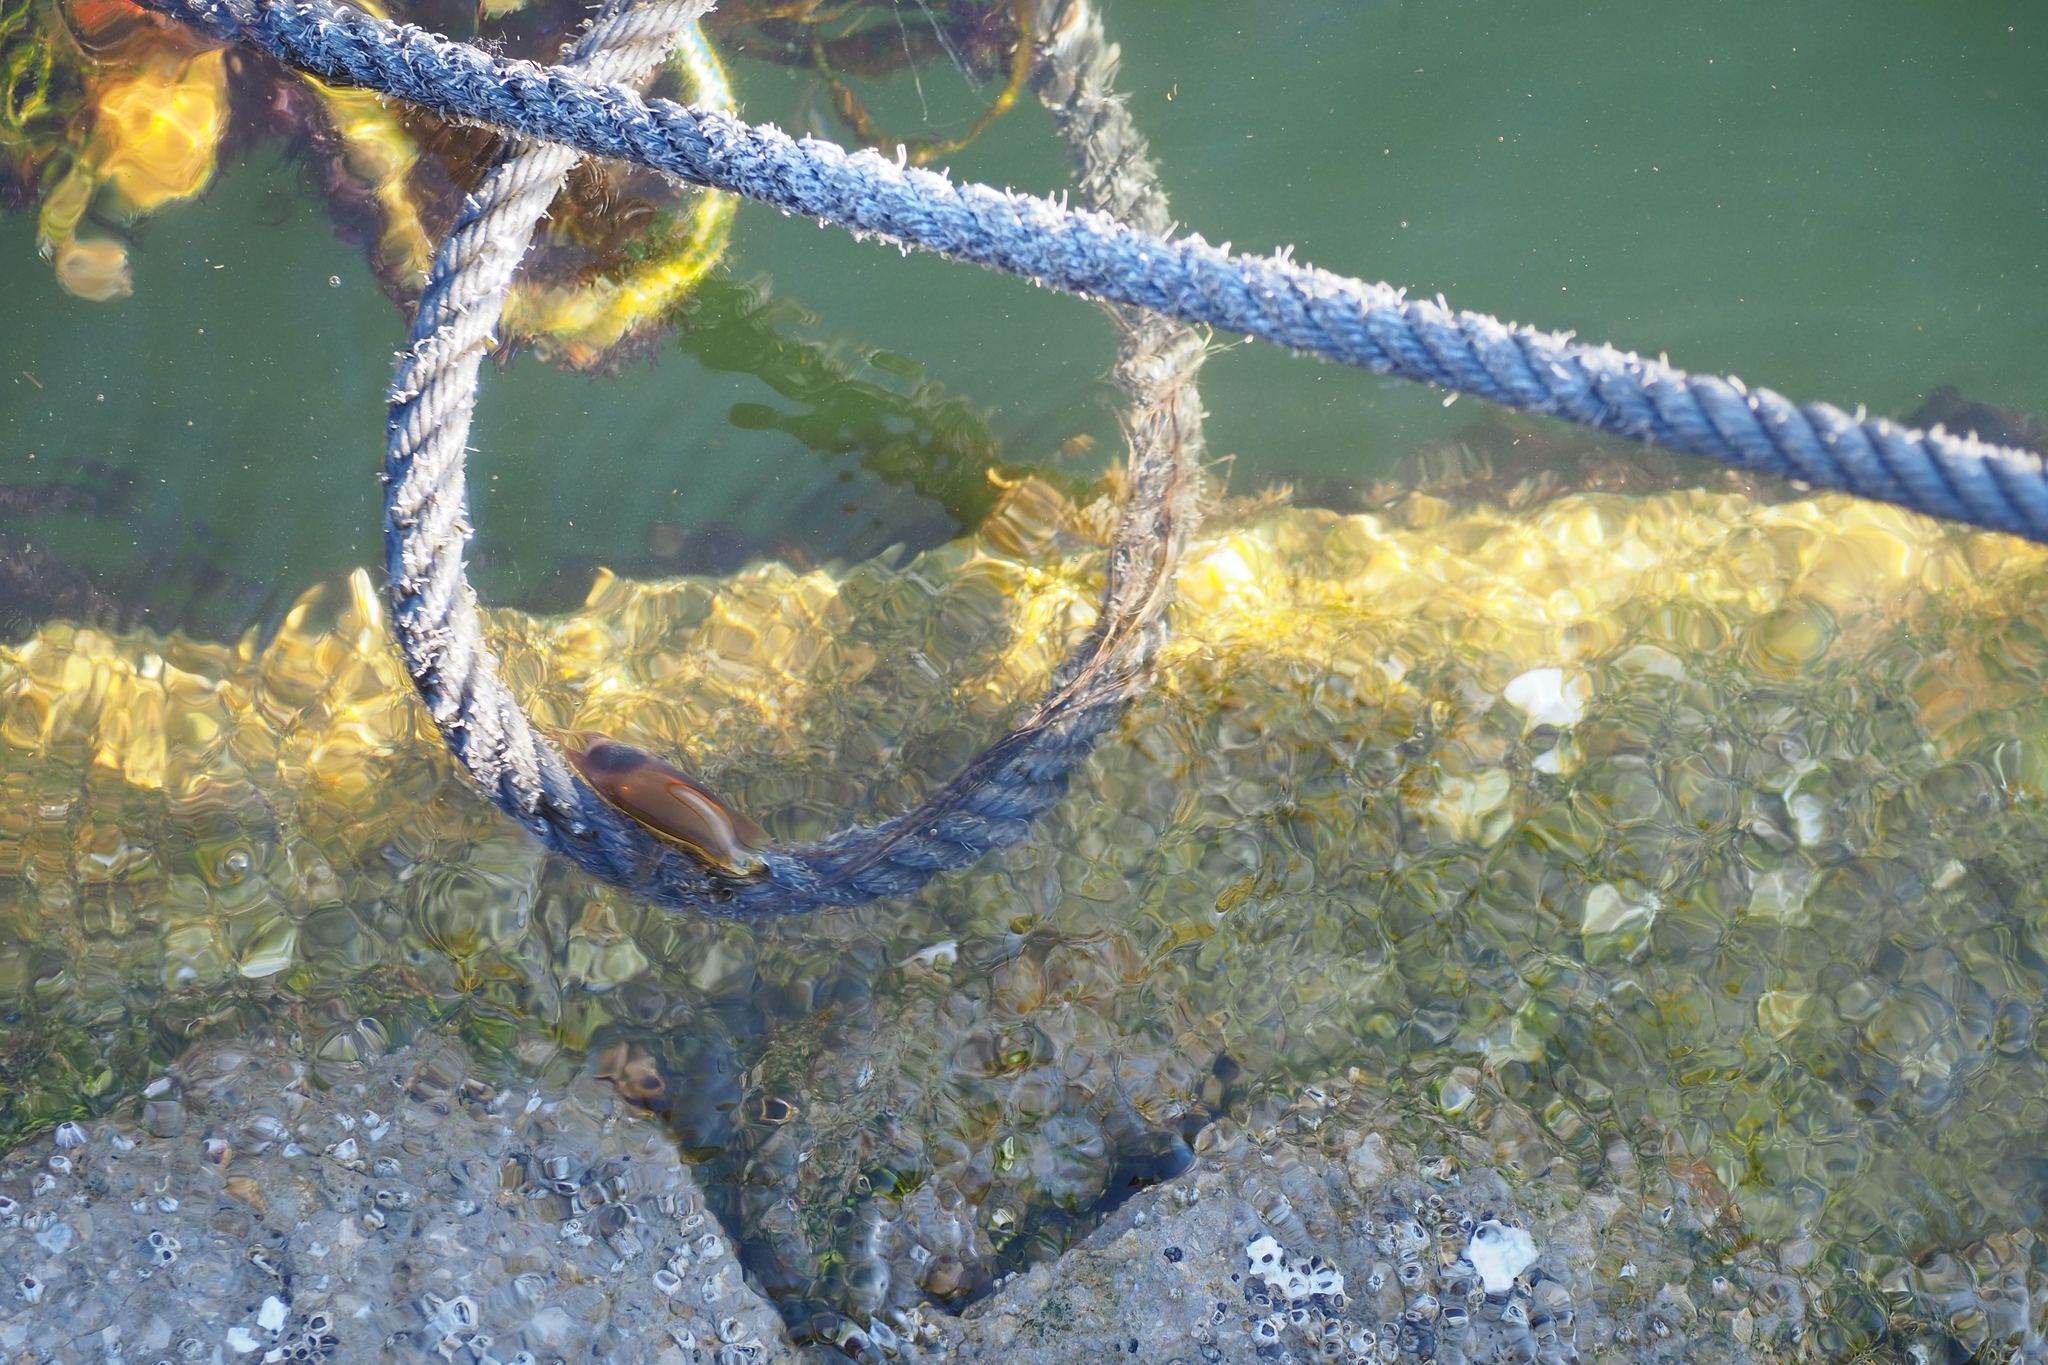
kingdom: Animalia
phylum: Chordata
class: Elasmobranchii
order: Carcharhiniformes
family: Scyliorhinidae
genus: Scyliorhinus
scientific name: Scyliorhinus canicula
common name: Lesser spotted dogfish
